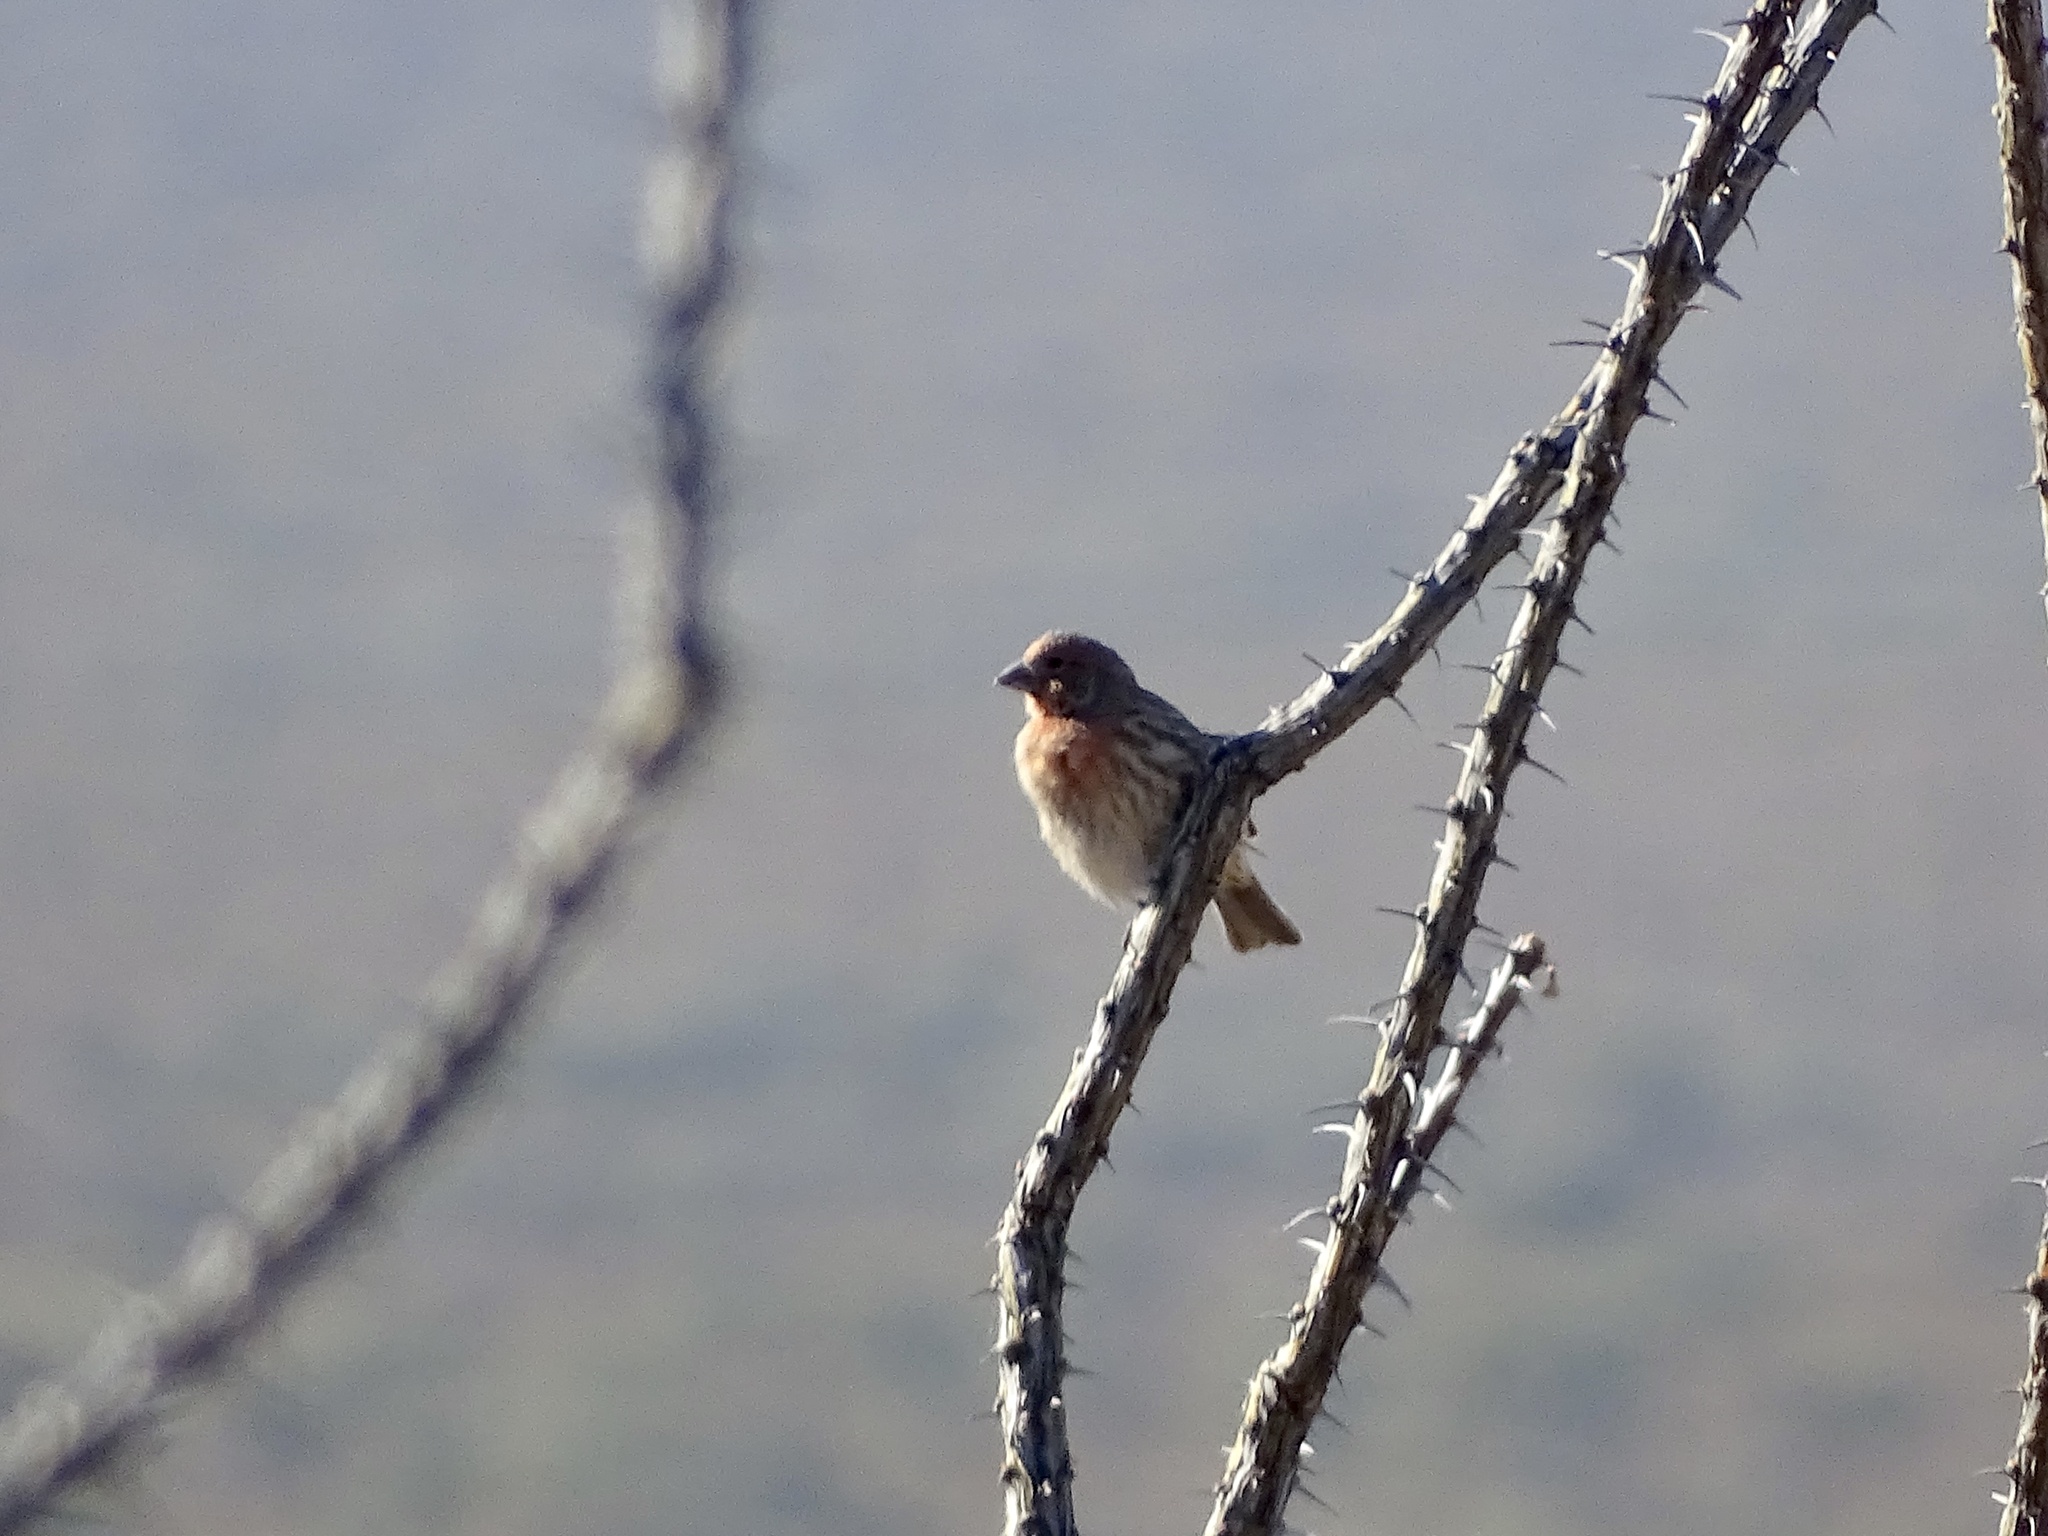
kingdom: Animalia
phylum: Chordata
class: Aves
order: Passeriformes
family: Fringillidae
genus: Haemorhous
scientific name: Haemorhous mexicanus
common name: House finch
